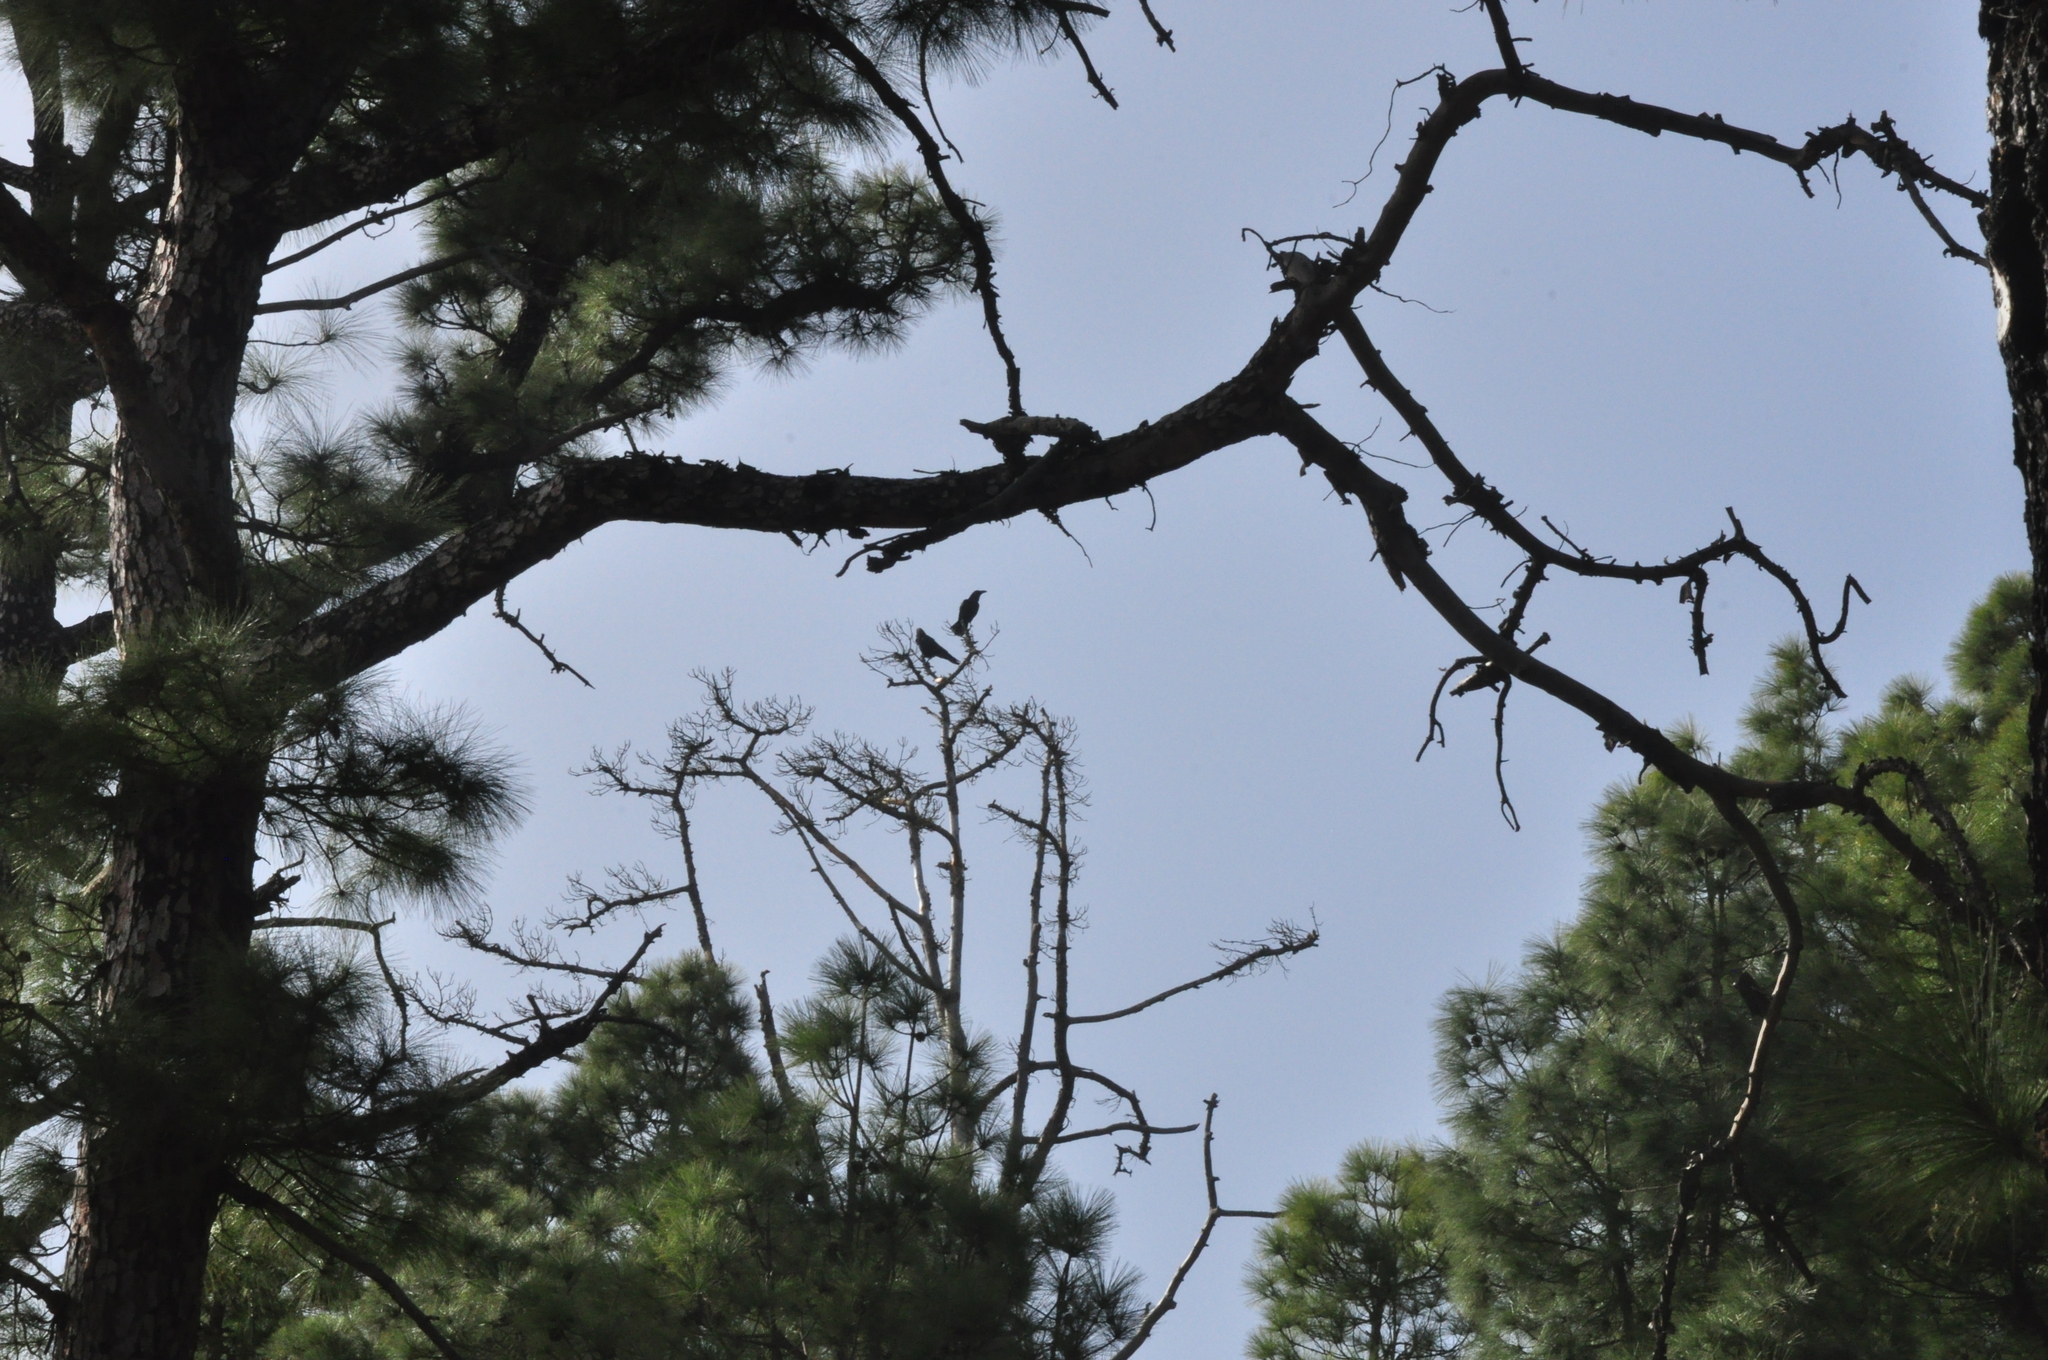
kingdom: Animalia
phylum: Chordata
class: Aves
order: Passeriformes
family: Corvidae
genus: Corvus
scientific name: Corvus corax
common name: Common raven
